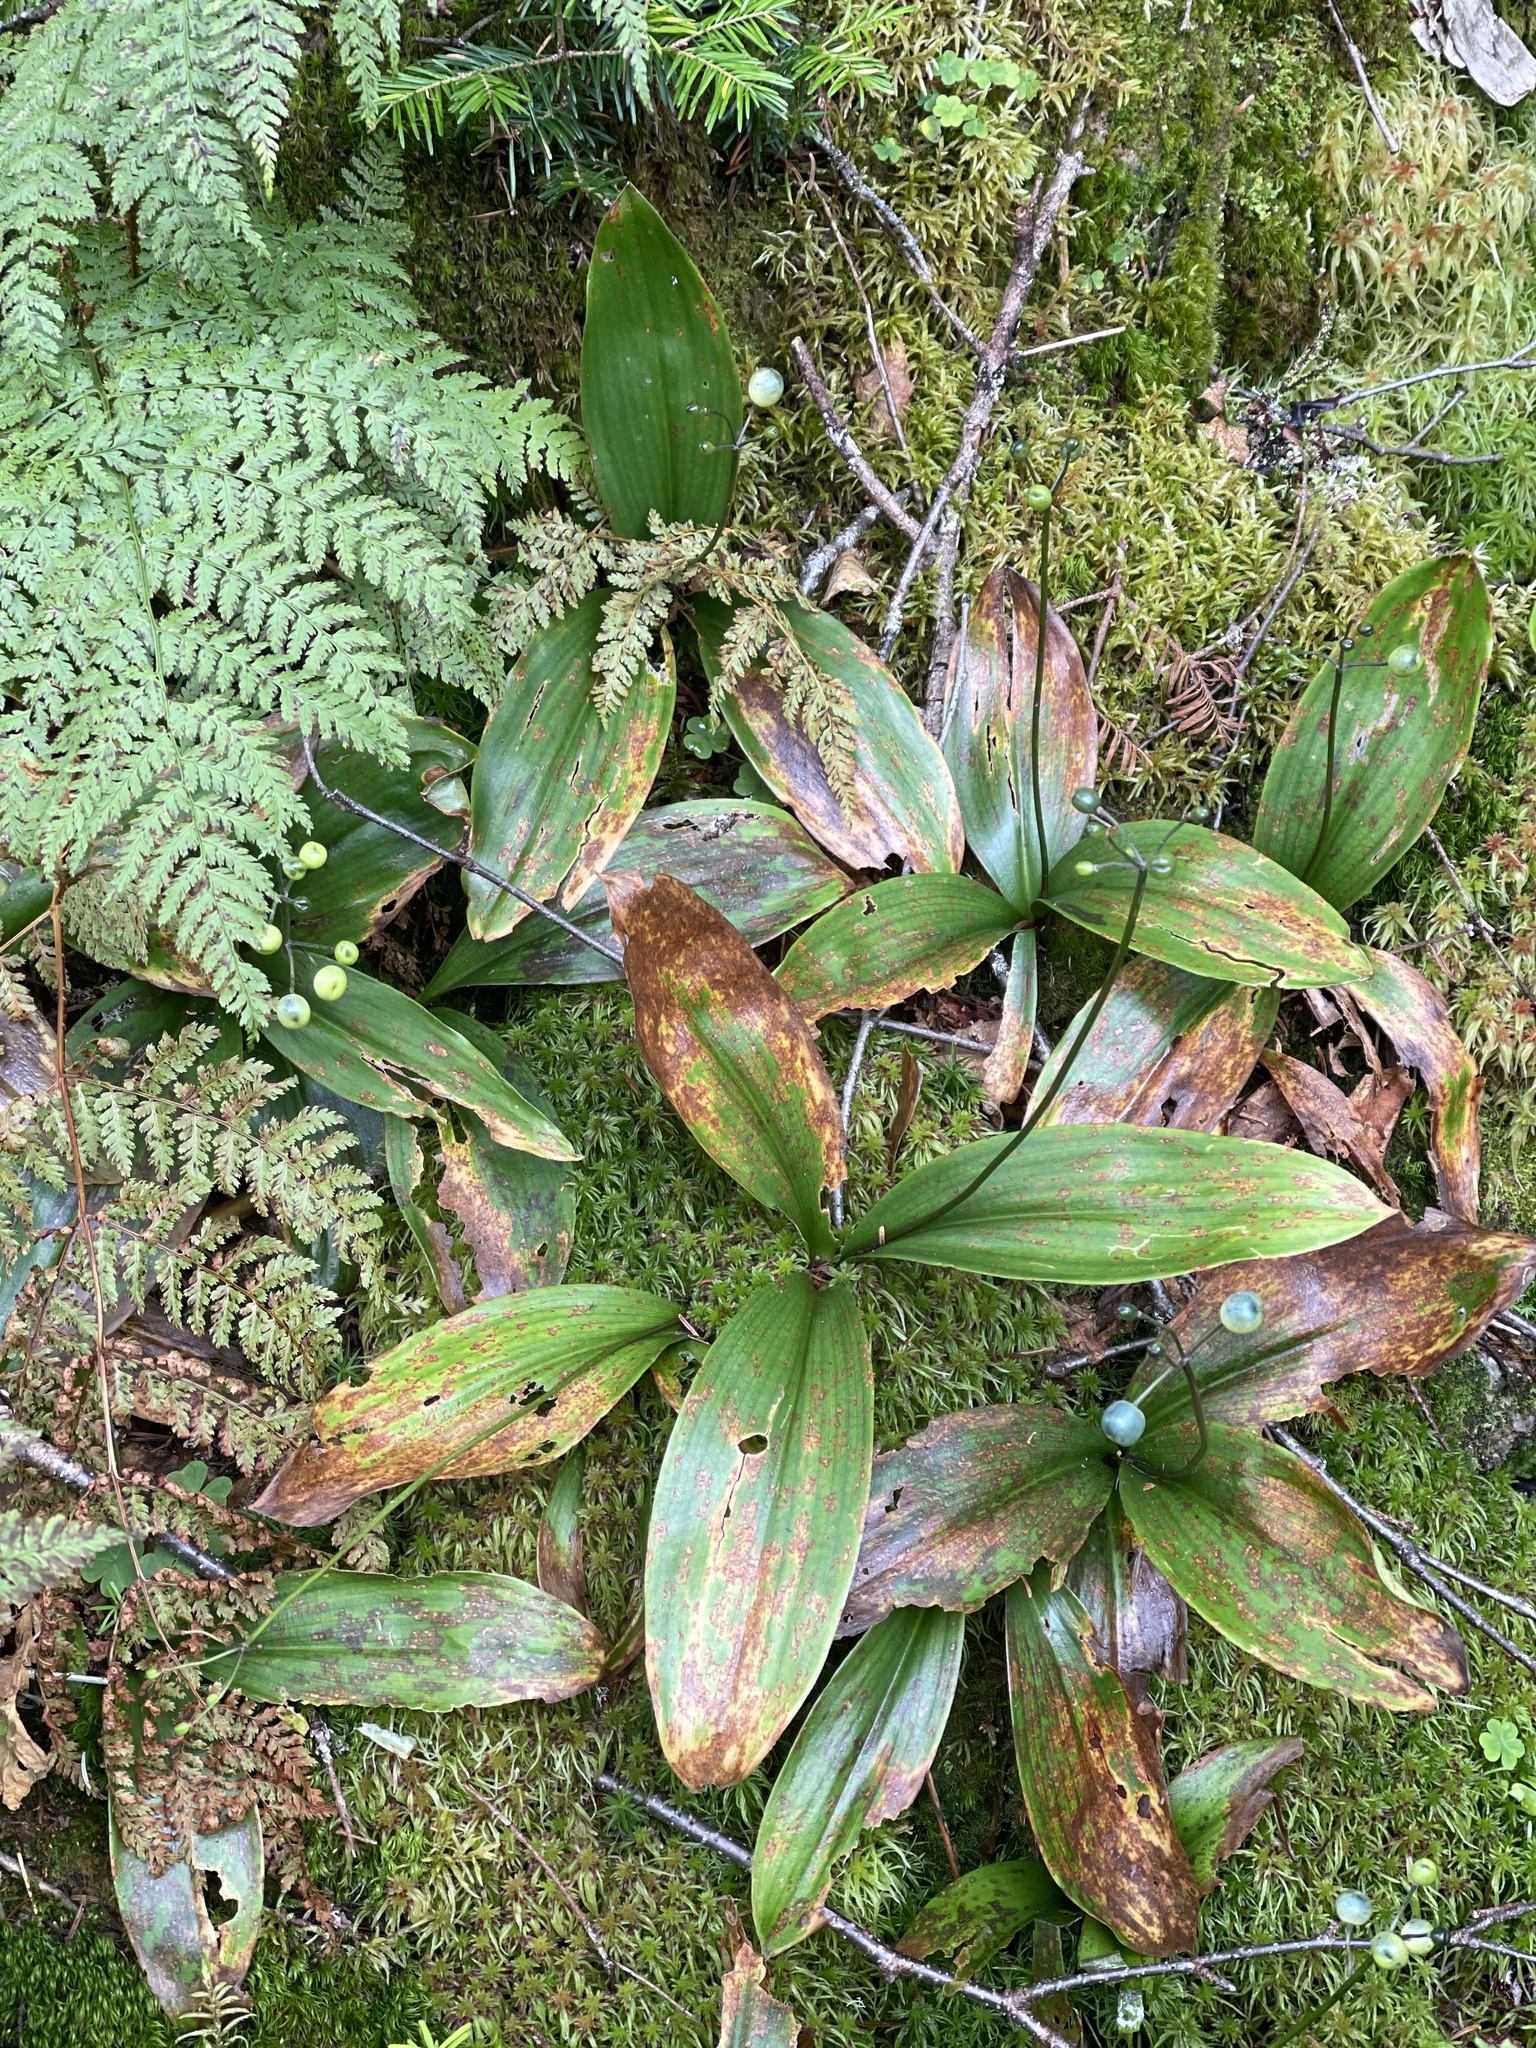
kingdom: Plantae
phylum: Tracheophyta
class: Liliopsida
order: Liliales
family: Liliaceae
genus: Clintonia
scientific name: Clintonia borealis
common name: Yellow clintonia
